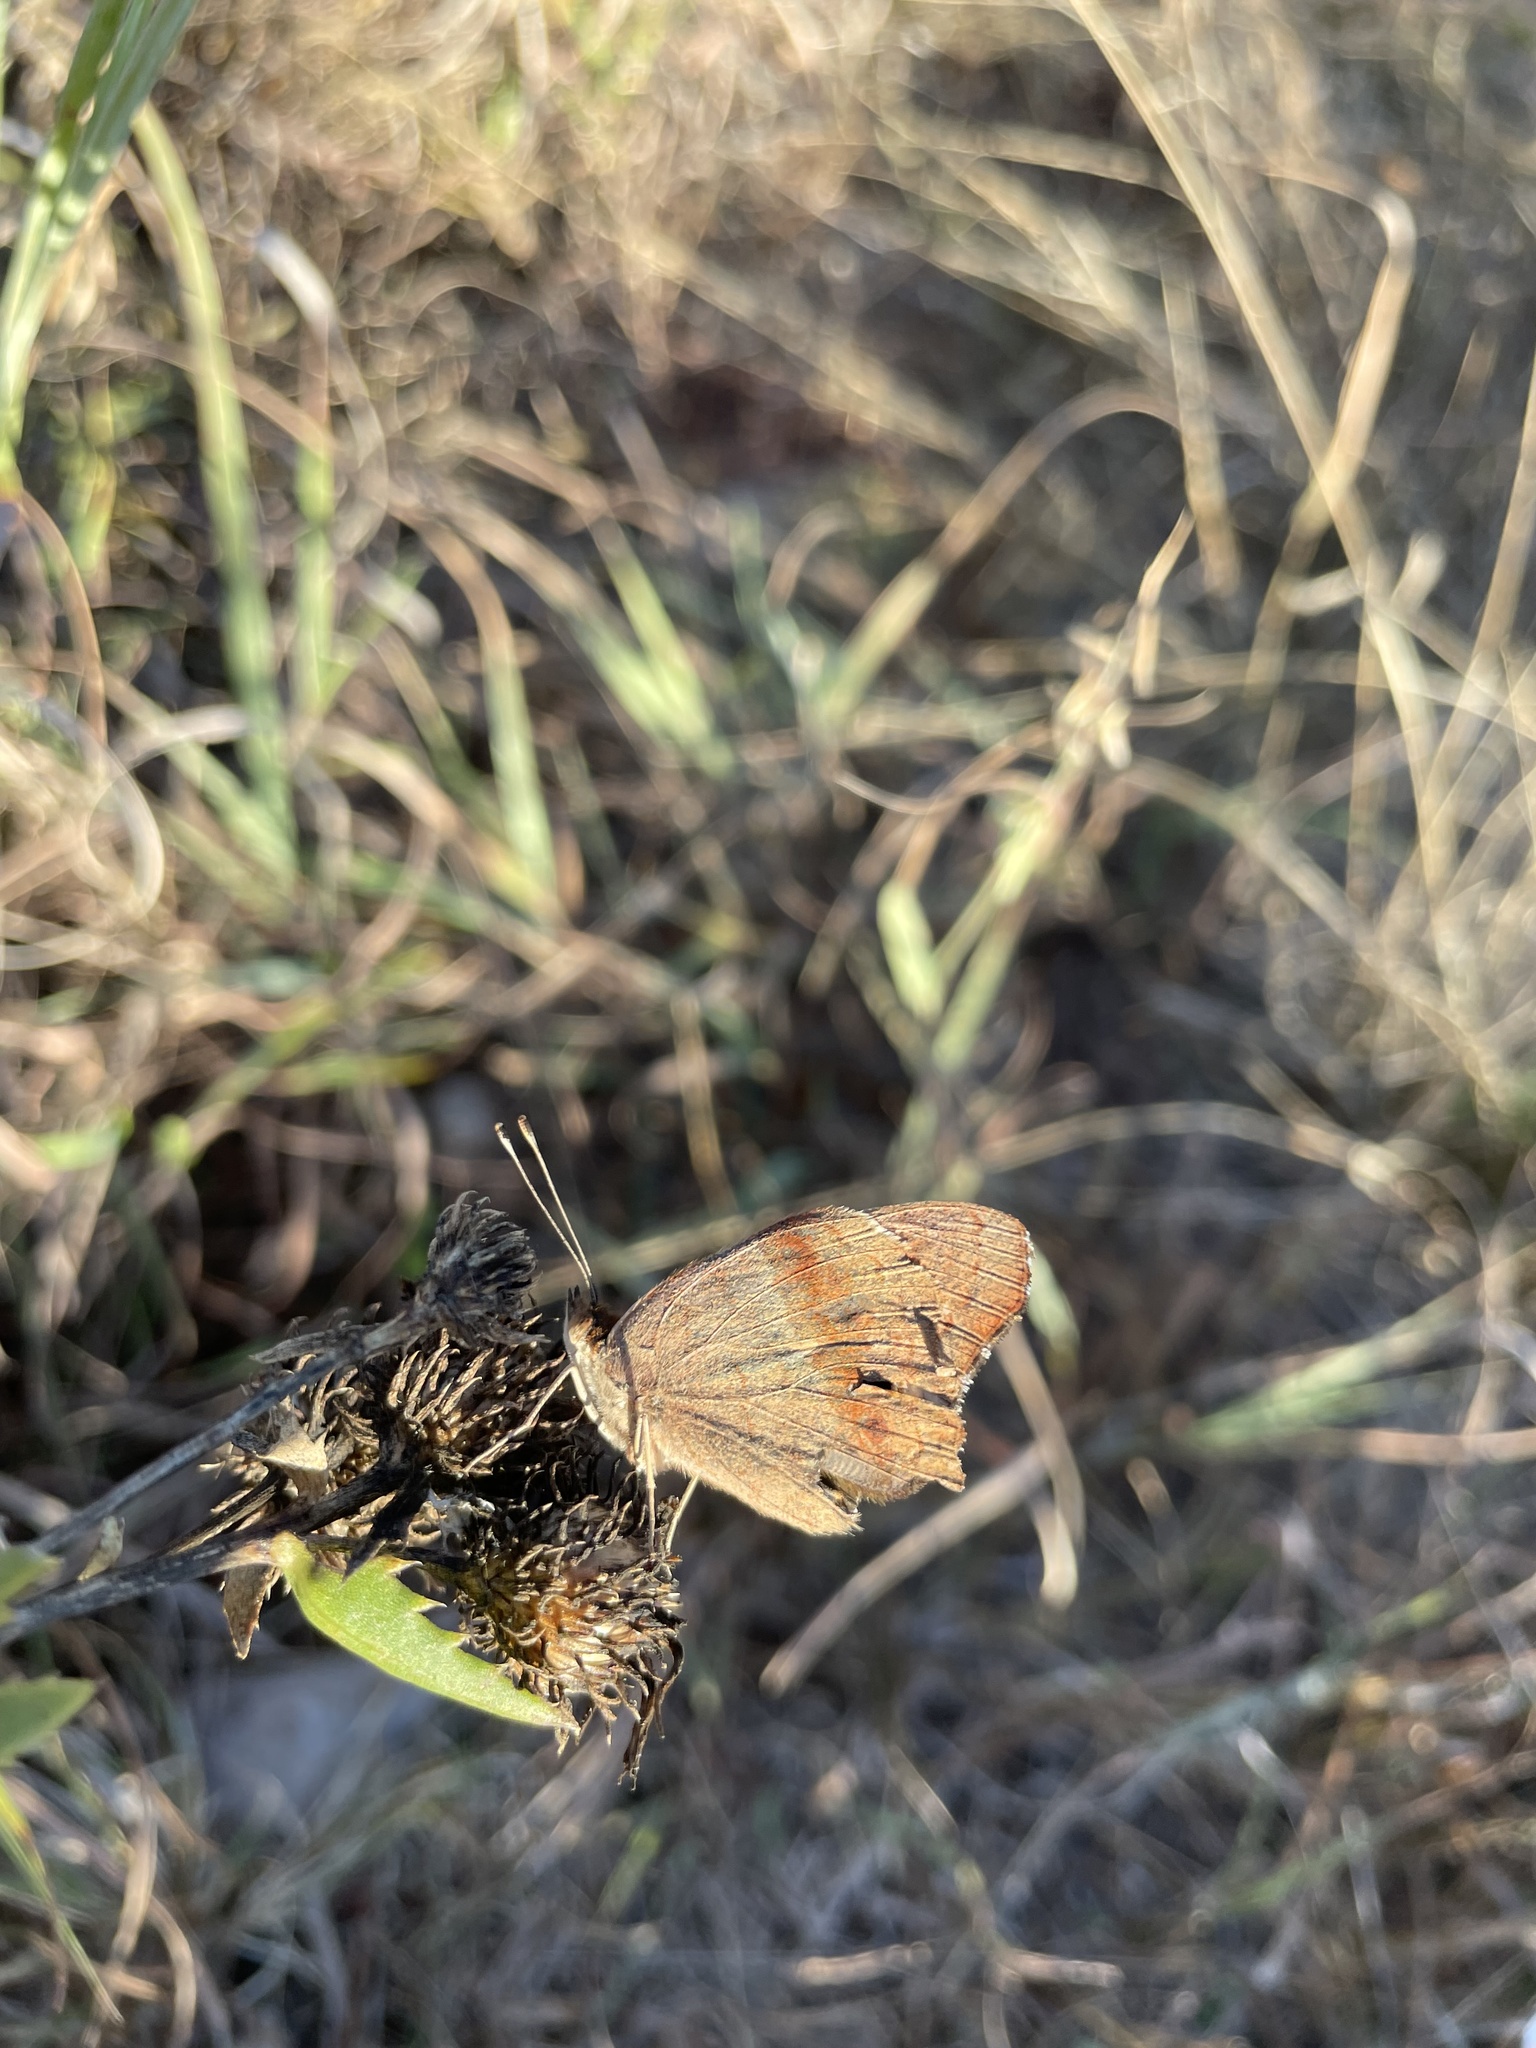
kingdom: Animalia
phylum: Arthropoda
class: Insecta
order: Lepidoptera
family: Nymphalidae
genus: Junonia
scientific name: Junonia coenia
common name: Common buckeye
